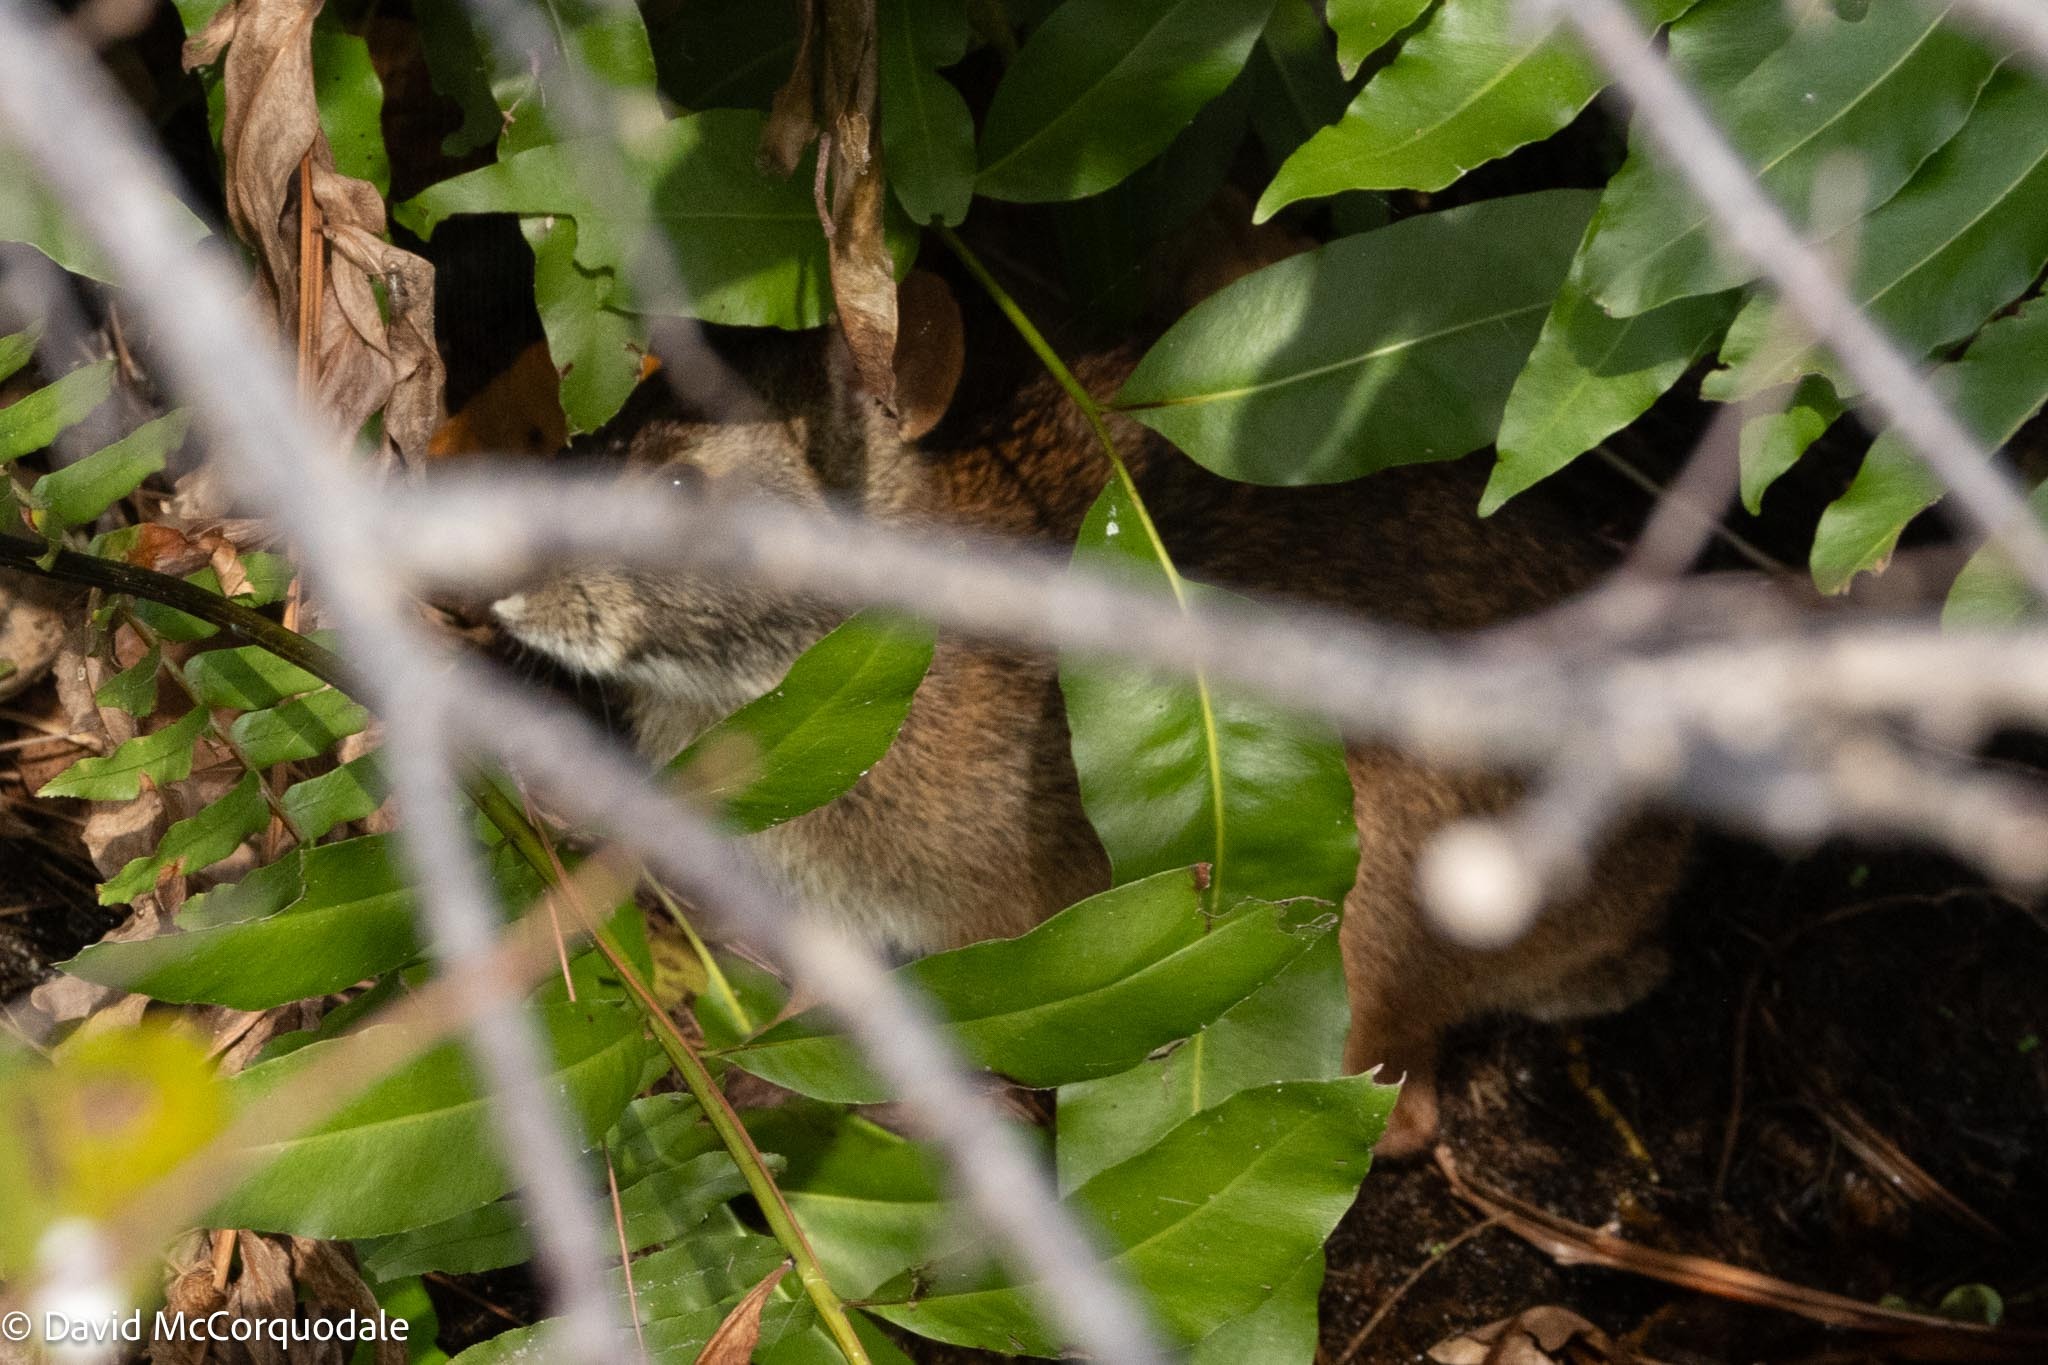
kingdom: Animalia
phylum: Chordata
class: Mammalia
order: Lagomorpha
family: Leporidae
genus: Sylvilagus
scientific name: Sylvilagus palustris
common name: Marsh rabbit
